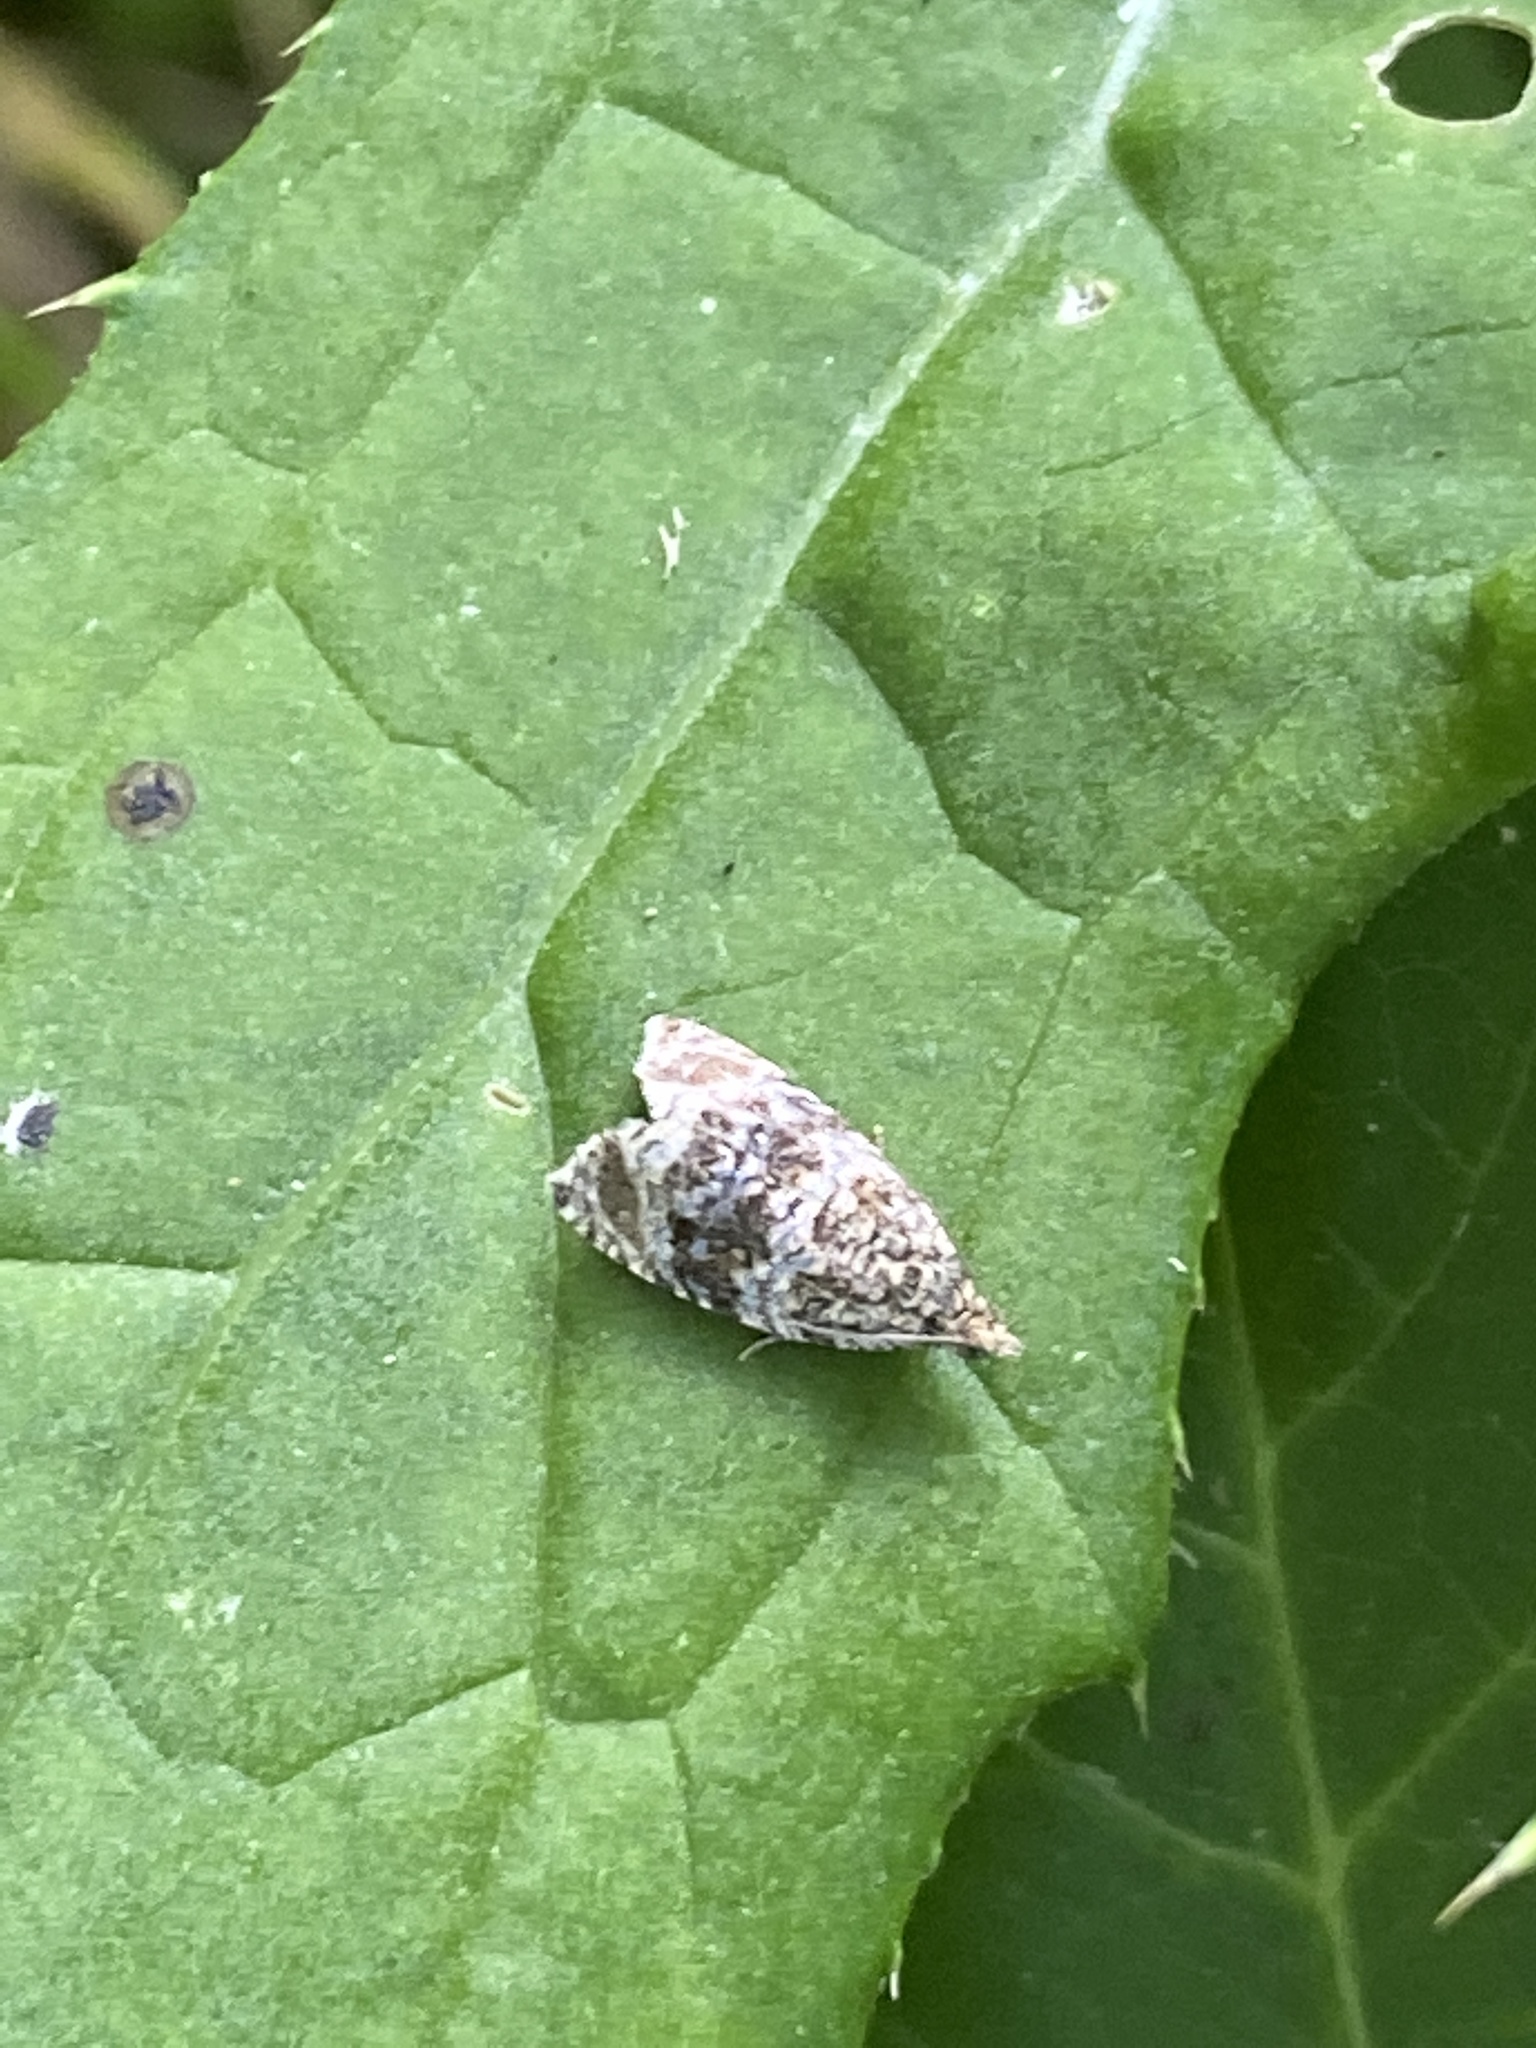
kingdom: Animalia
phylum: Arthropoda
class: Insecta
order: Lepidoptera
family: Tortricidae
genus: Syricoris
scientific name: Syricoris lacunana
